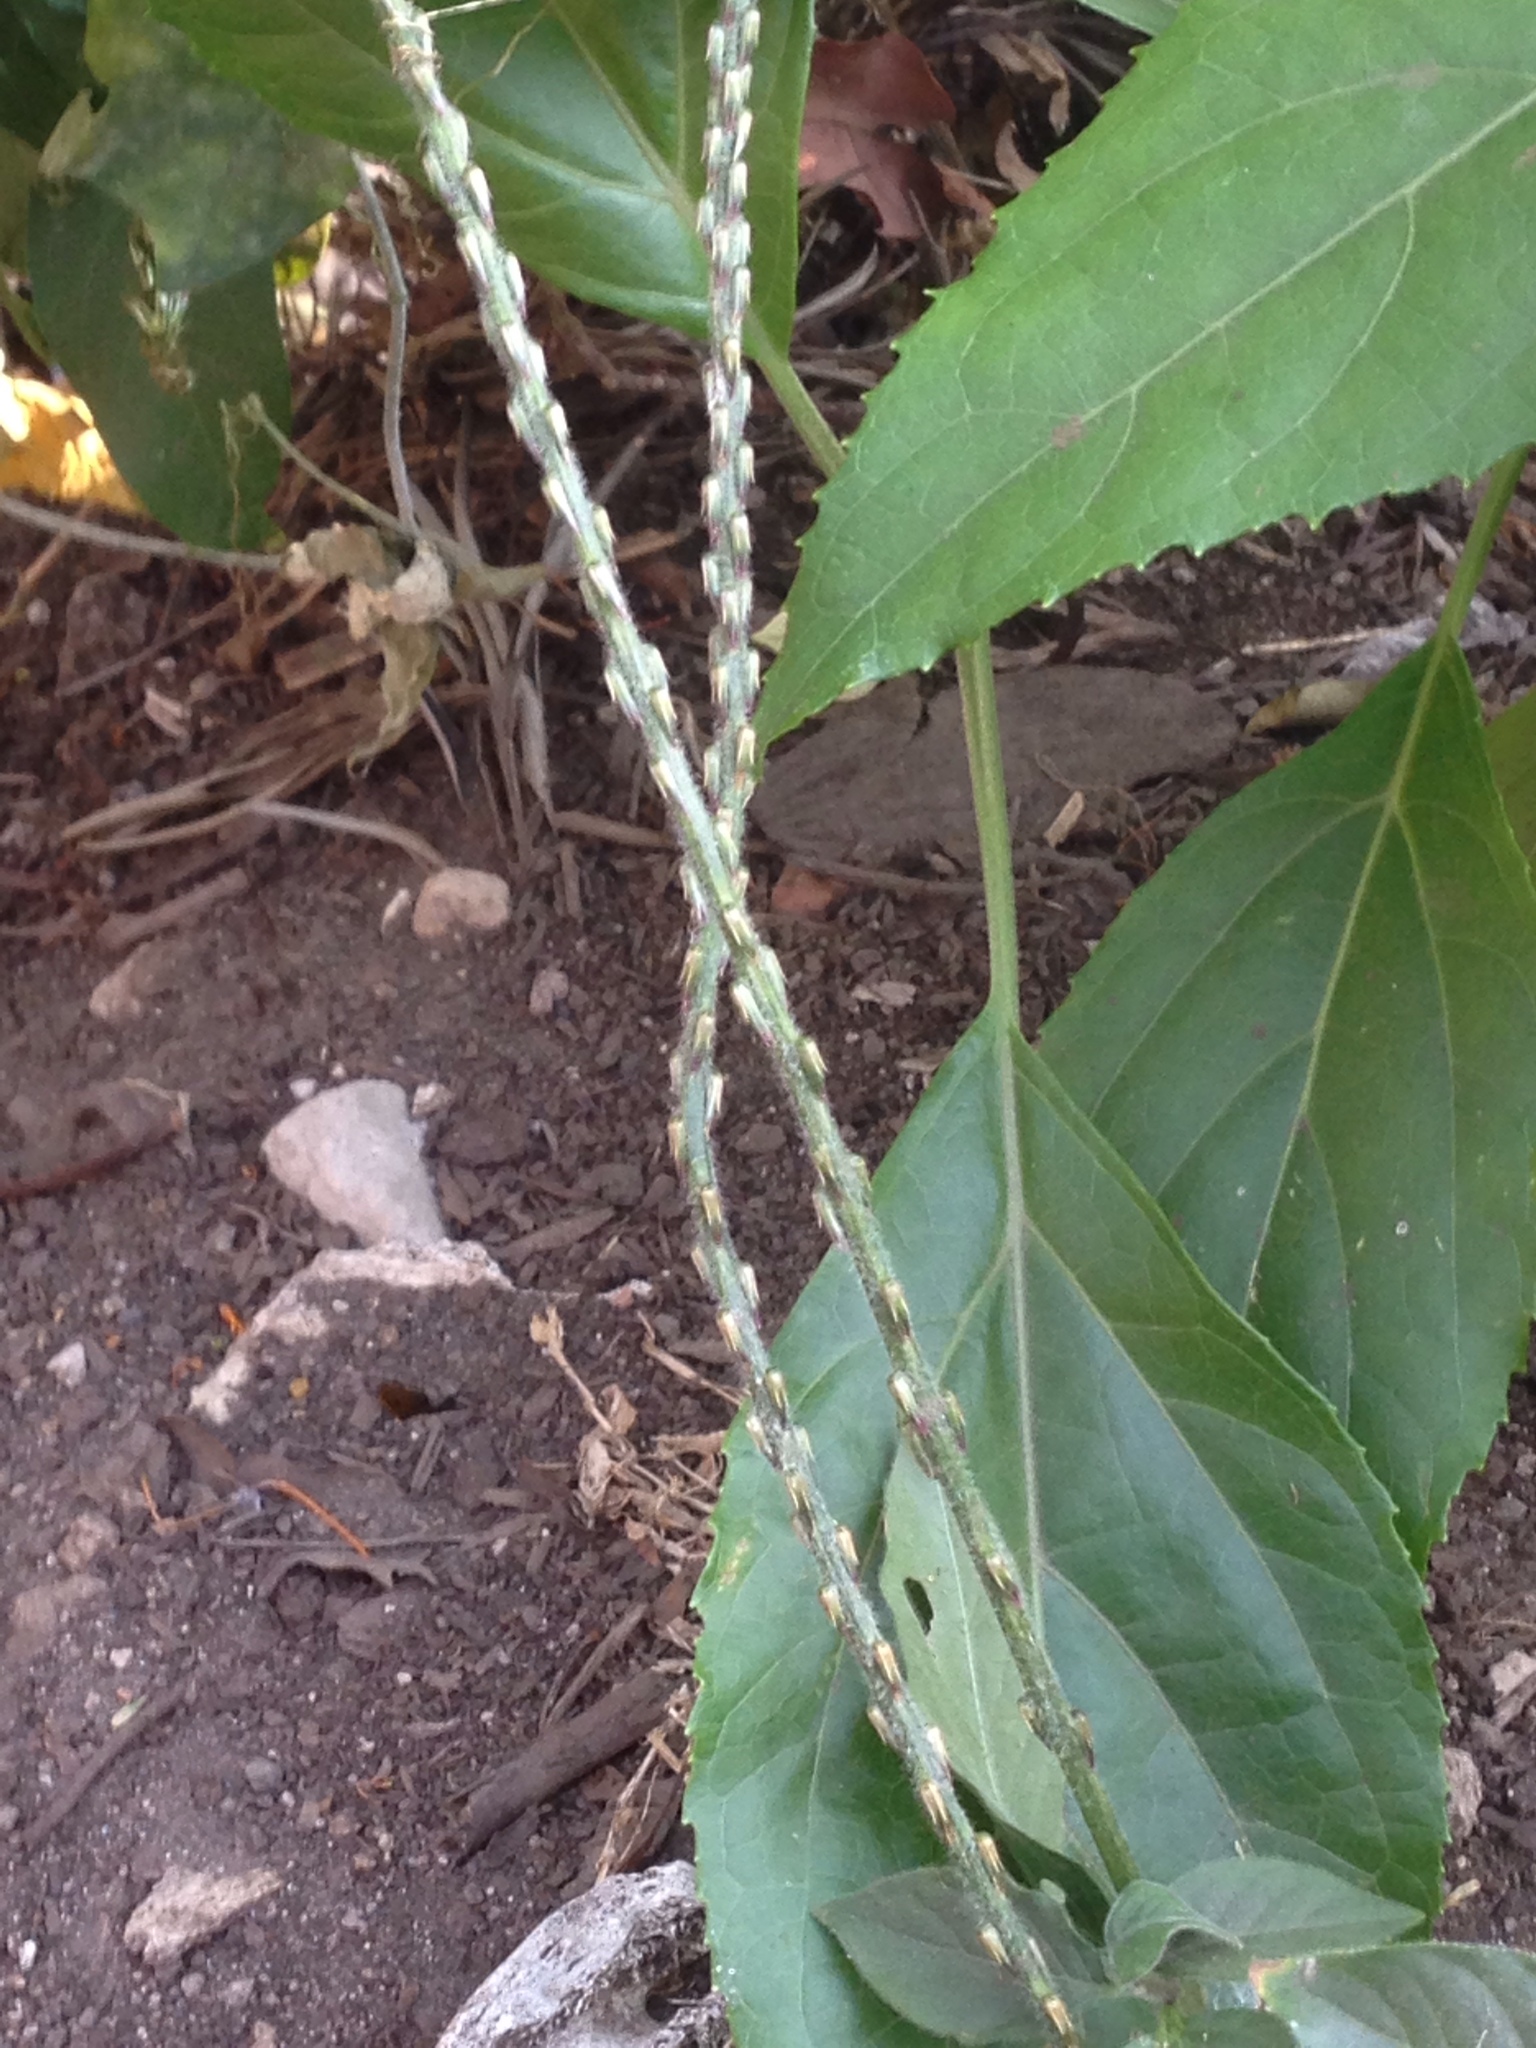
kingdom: Plantae
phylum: Tracheophyta
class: Magnoliopsida
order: Caryophyllales
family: Amaranthaceae
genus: Achyranthes
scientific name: Achyranthes aspera
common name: Devil's horsewhip
